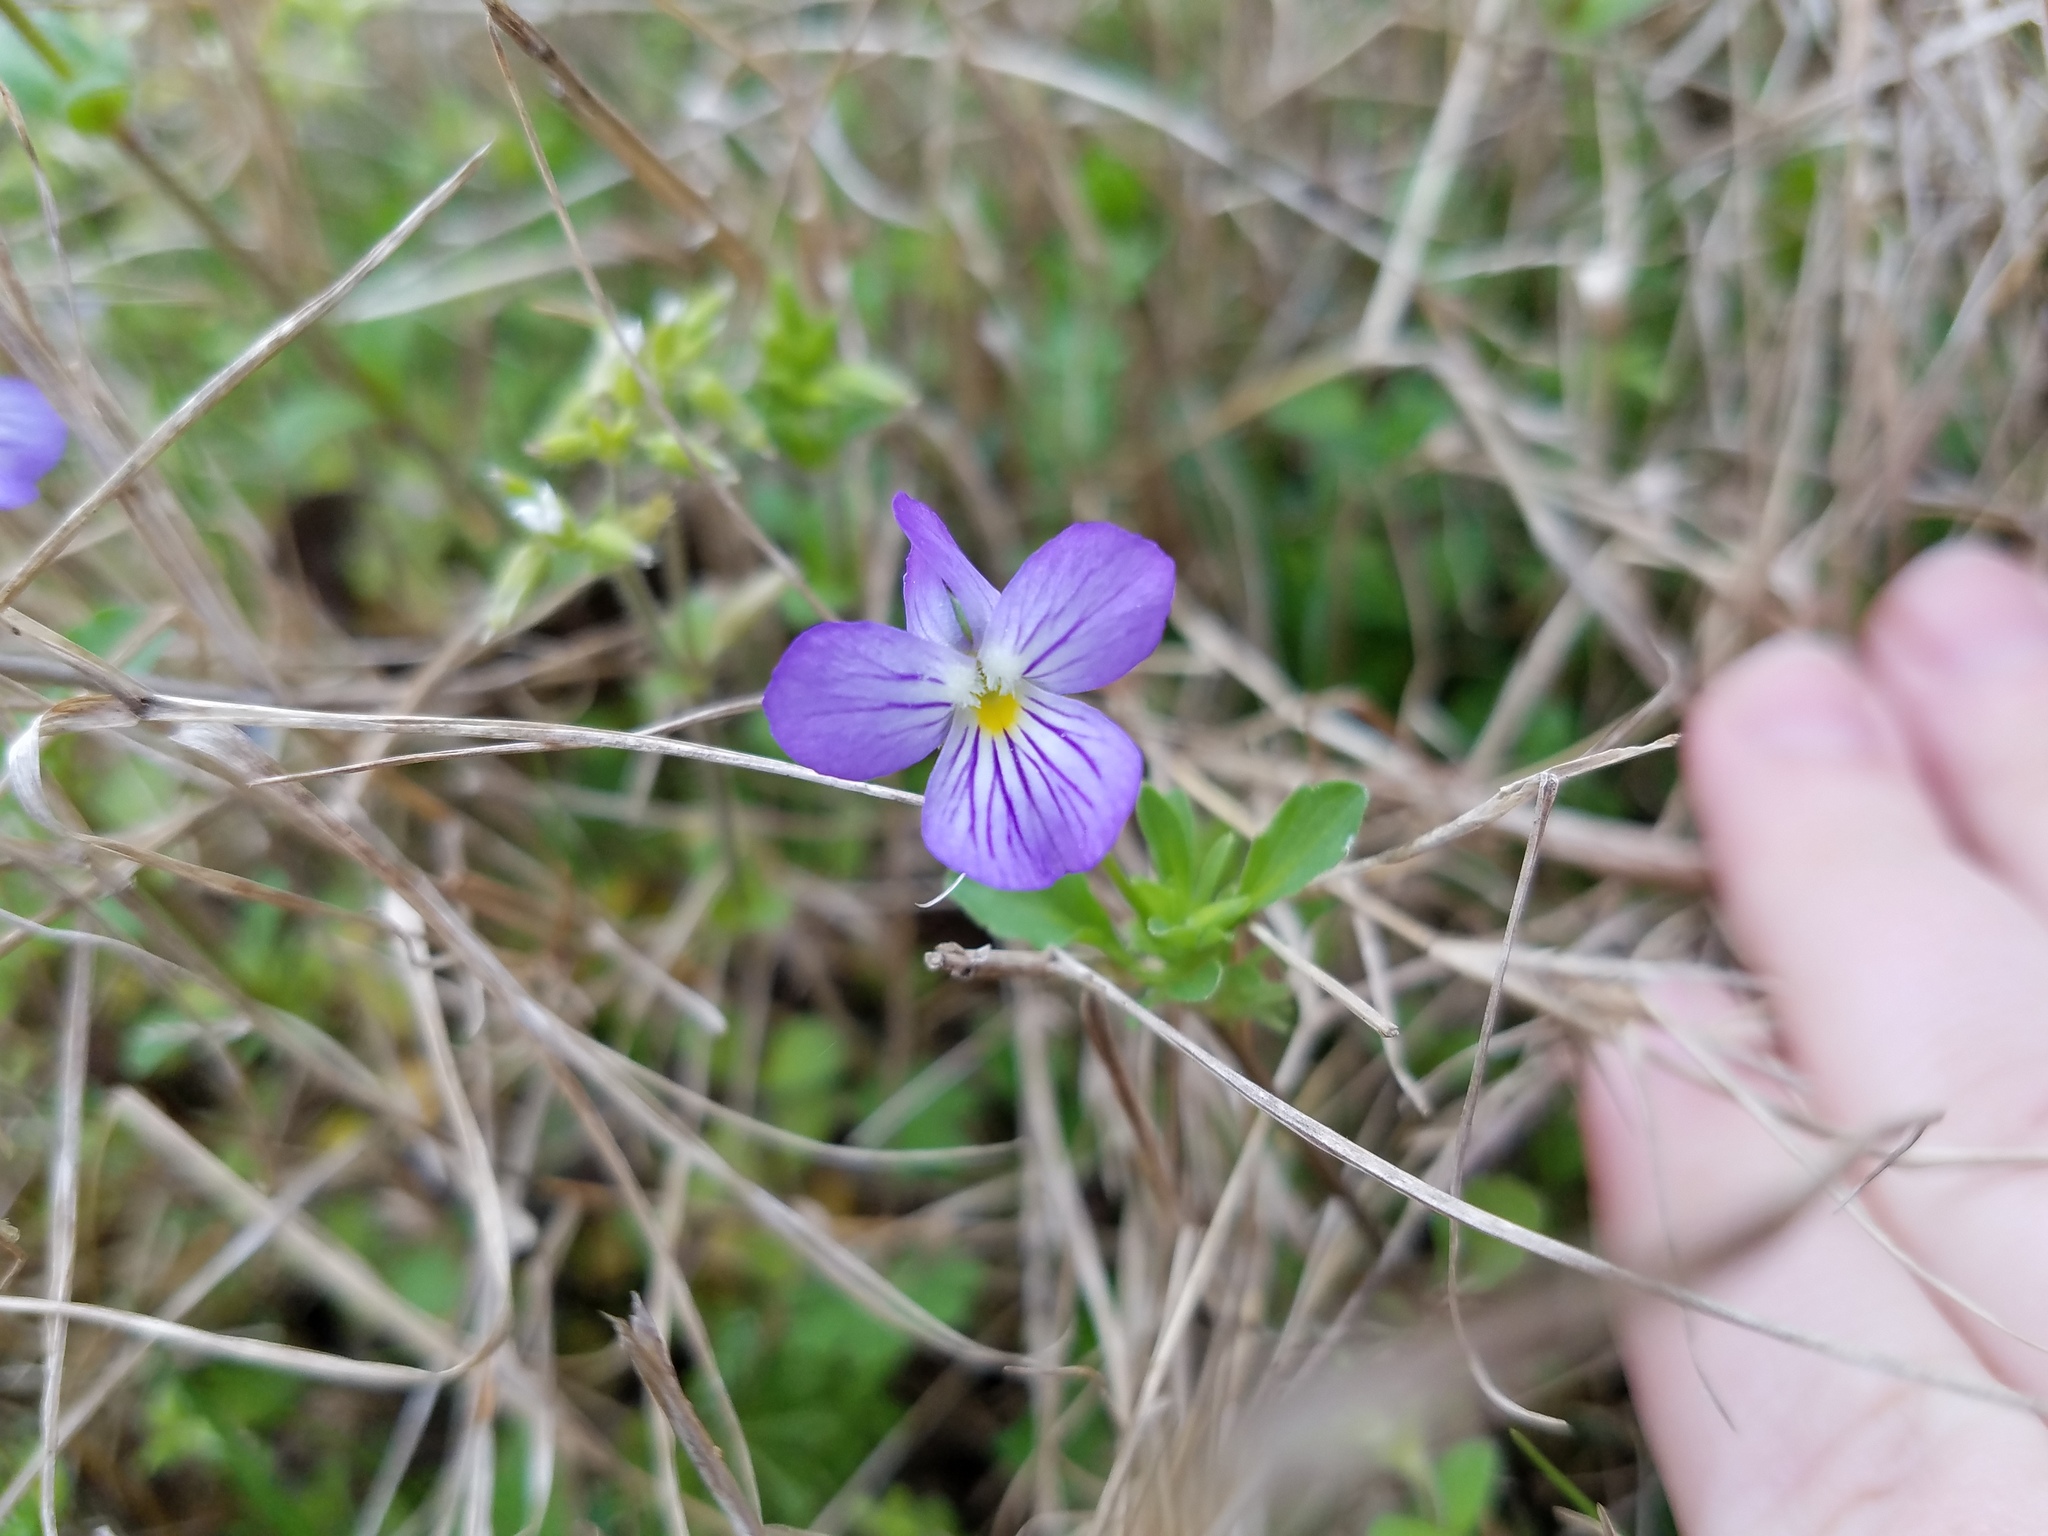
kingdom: Plantae
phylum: Tracheophyta
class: Magnoliopsida
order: Malpighiales
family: Violaceae
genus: Viola
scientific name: Viola rafinesquei
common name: American field pansy
